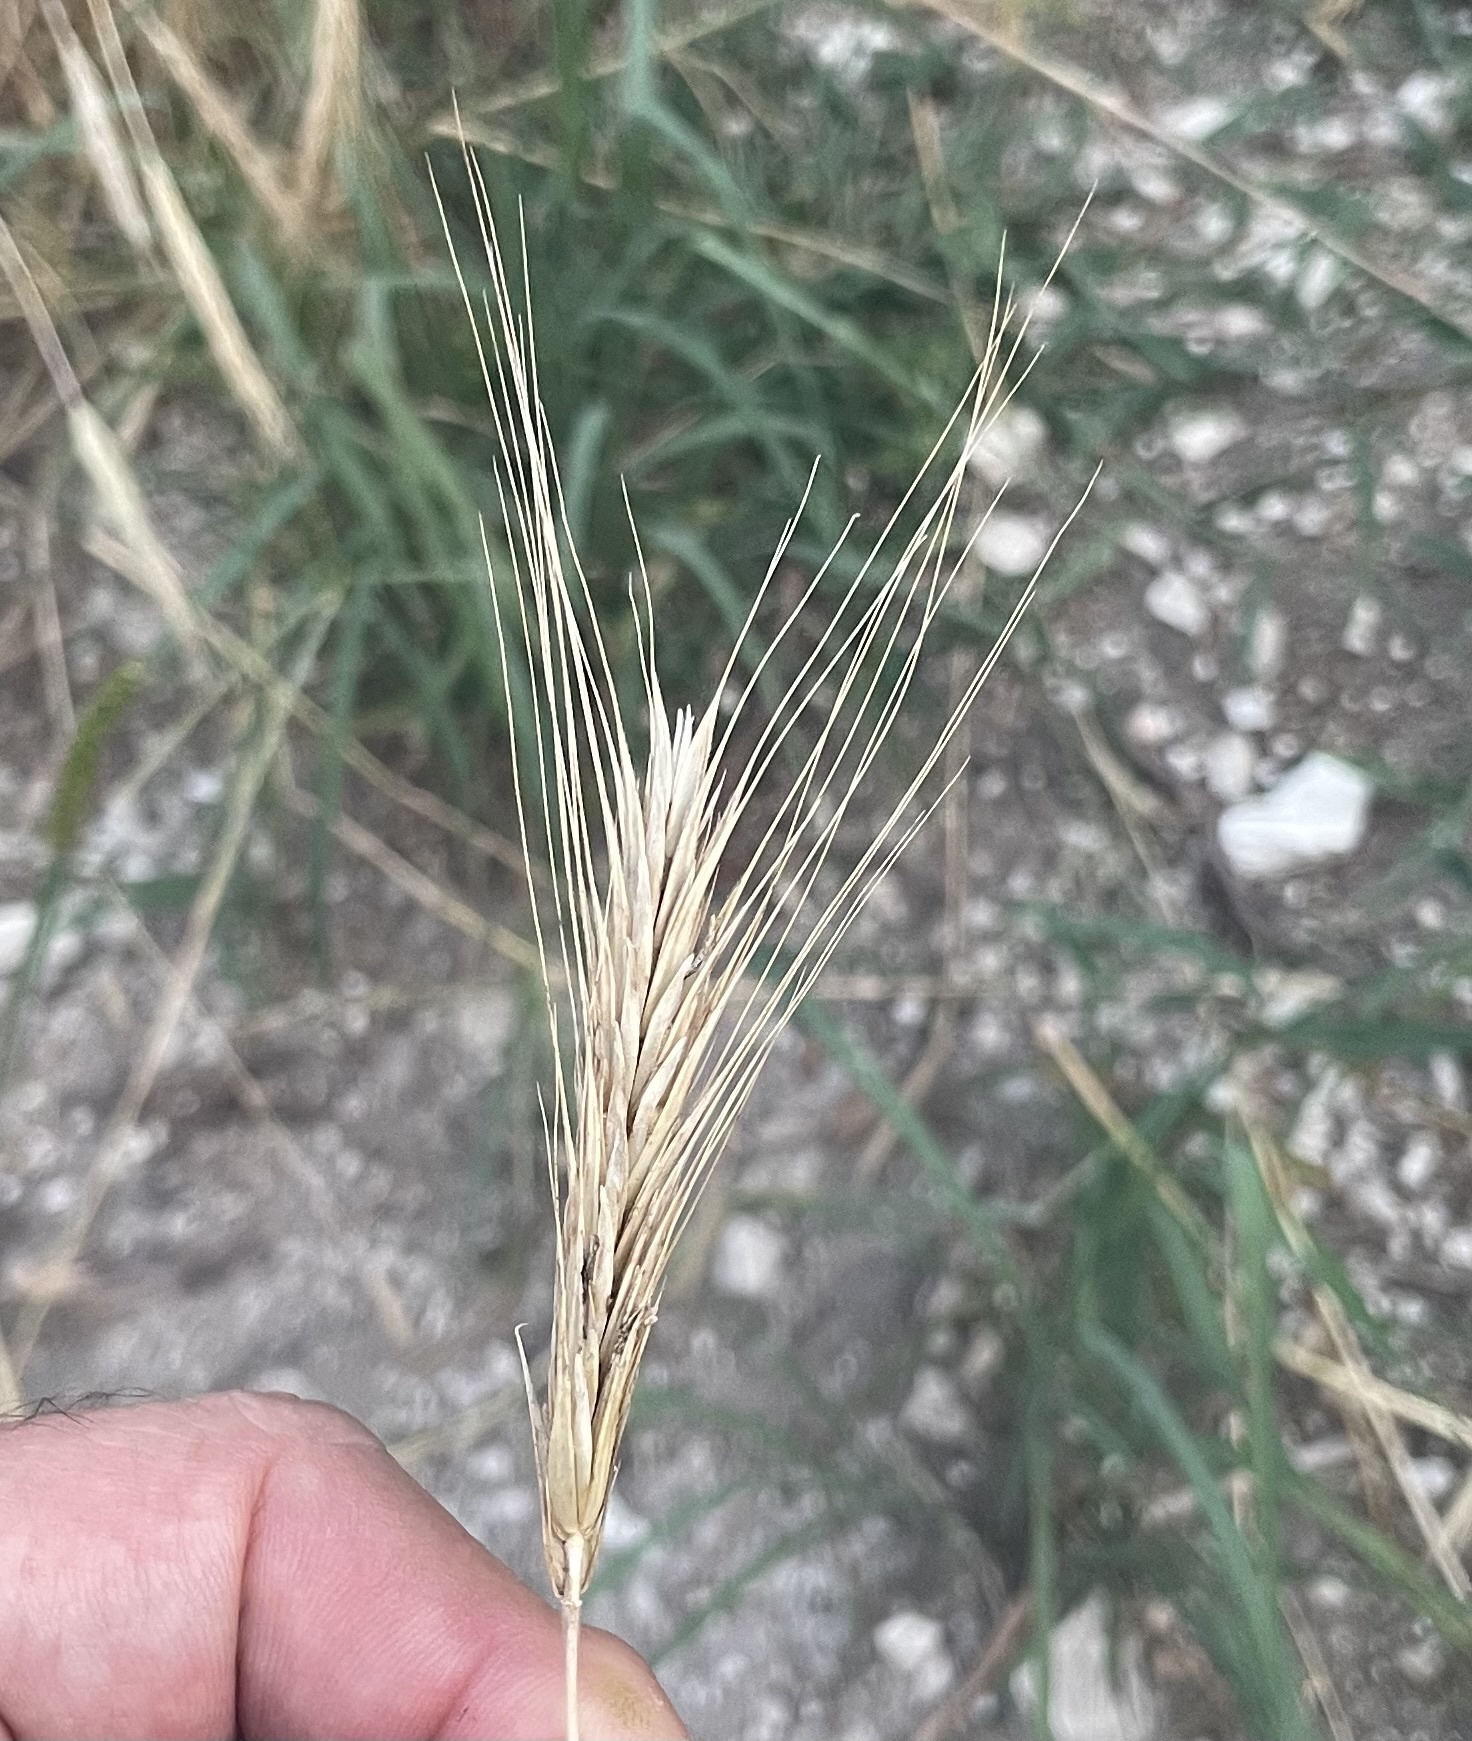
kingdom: Plantae
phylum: Tracheophyta
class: Liliopsida
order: Poales
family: Poaceae
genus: Secale
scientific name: Secale cereale
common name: Rye
